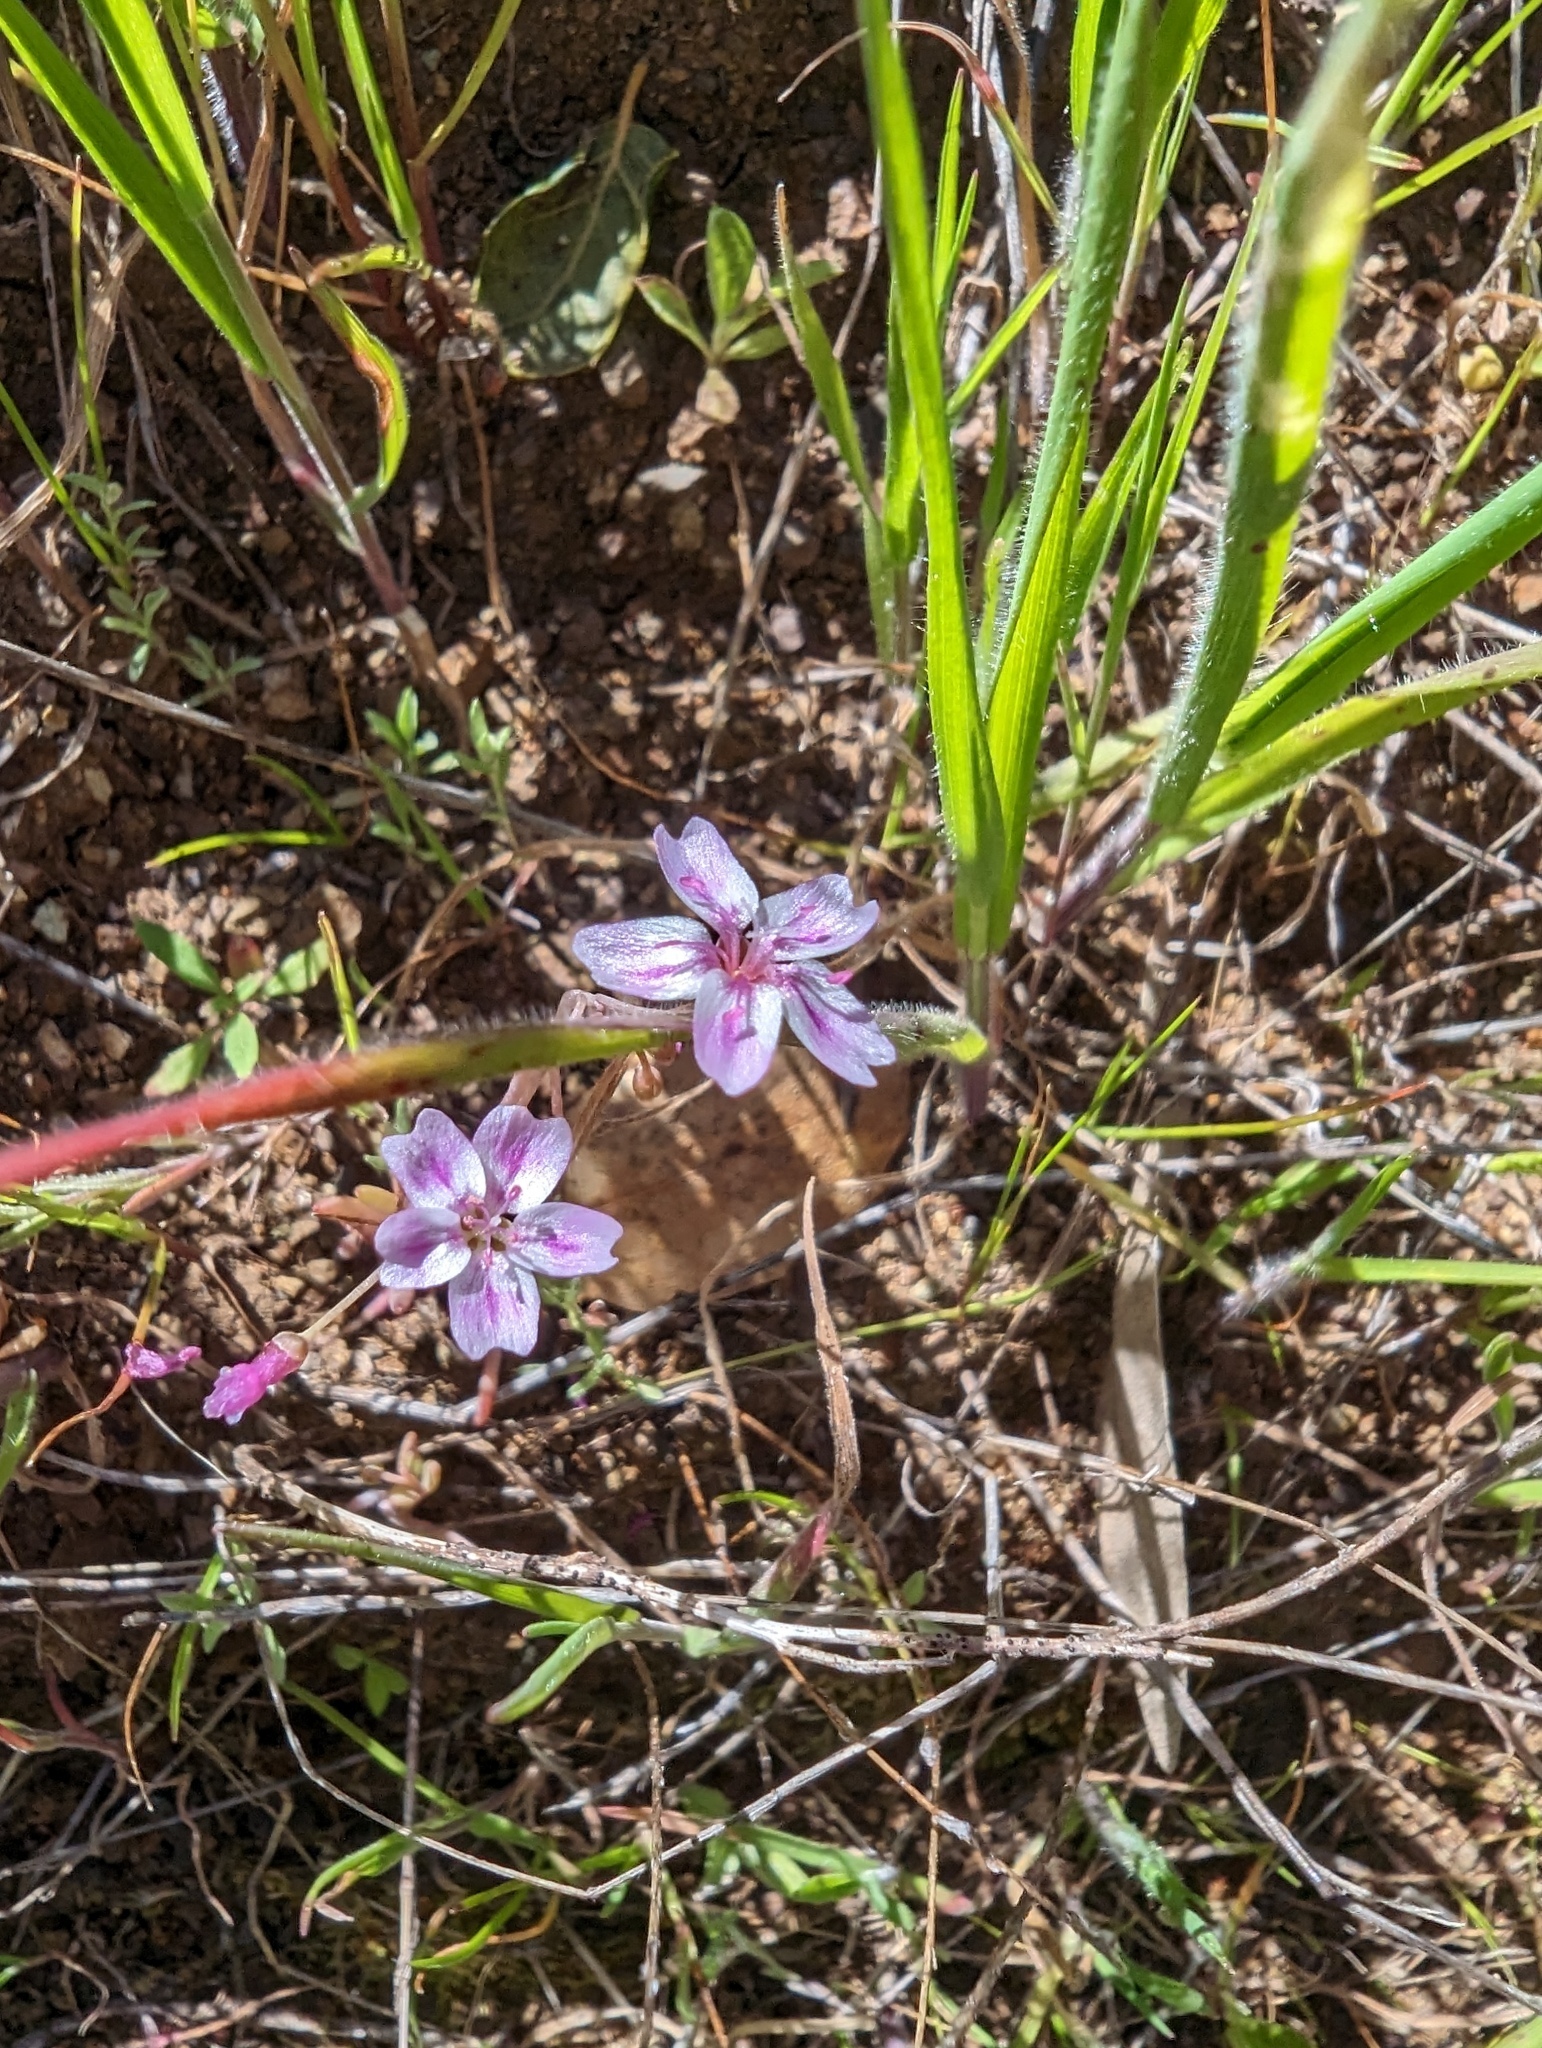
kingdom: Plantae
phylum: Tracheophyta
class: Magnoliopsida
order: Caryophyllales
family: Montiaceae
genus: Claytonia
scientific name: Claytonia gypsophiloides
